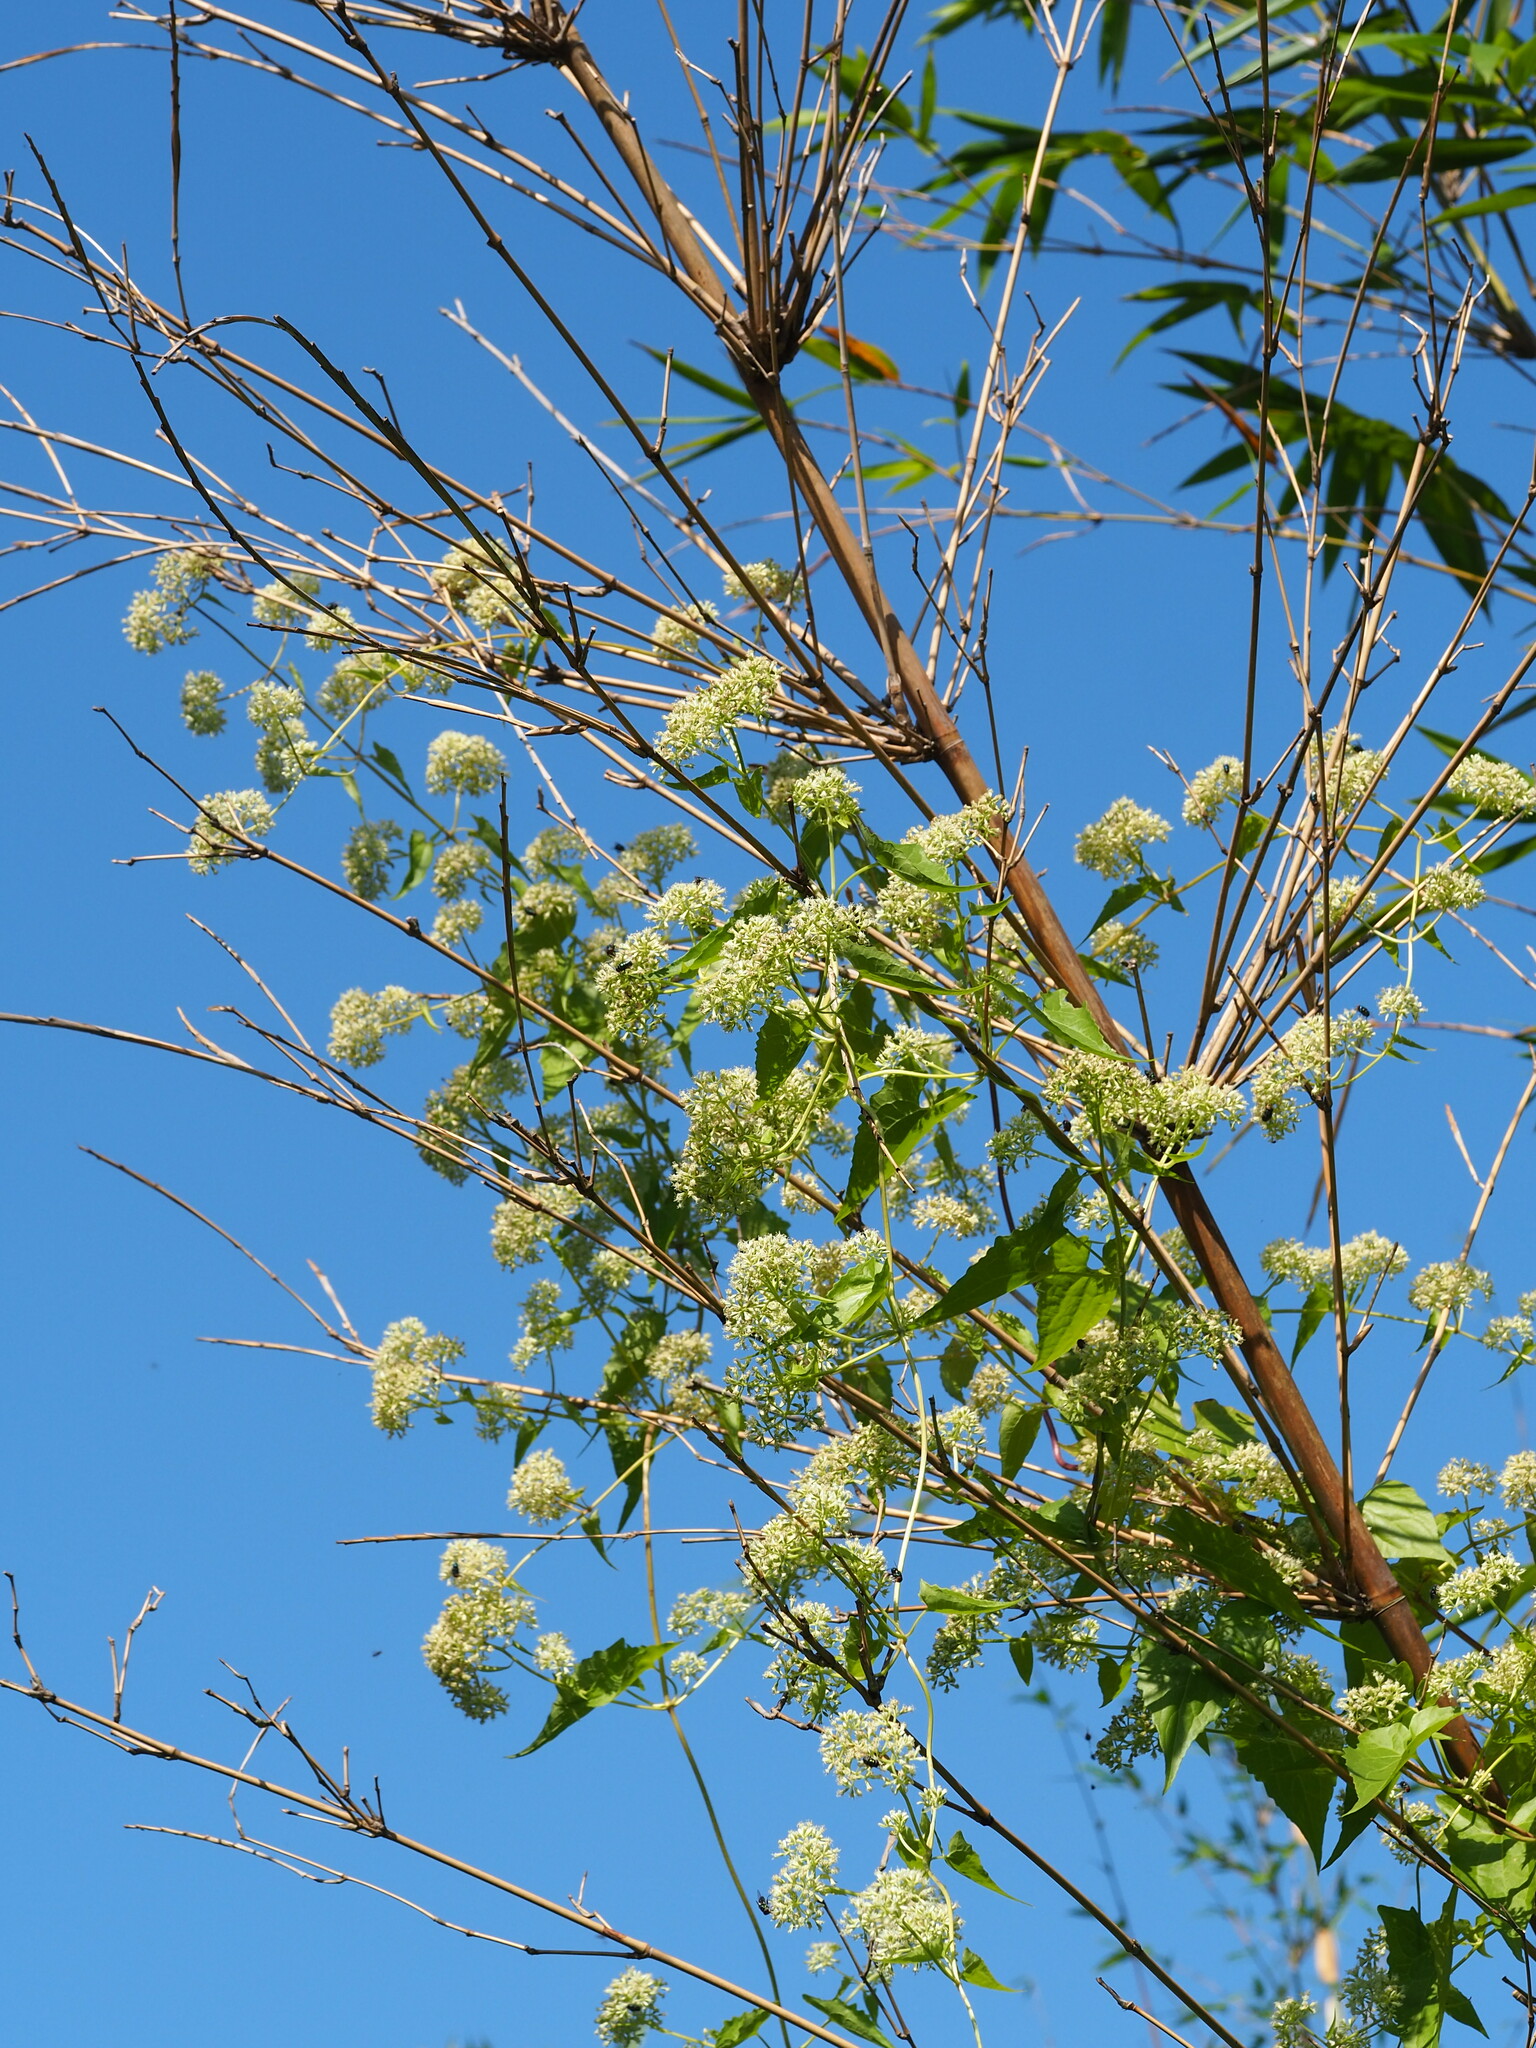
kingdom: Plantae
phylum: Tracheophyta
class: Magnoliopsida
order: Asterales
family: Asteraceae
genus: Mikania
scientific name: Mikania micrantha
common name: Mile-a-minute
